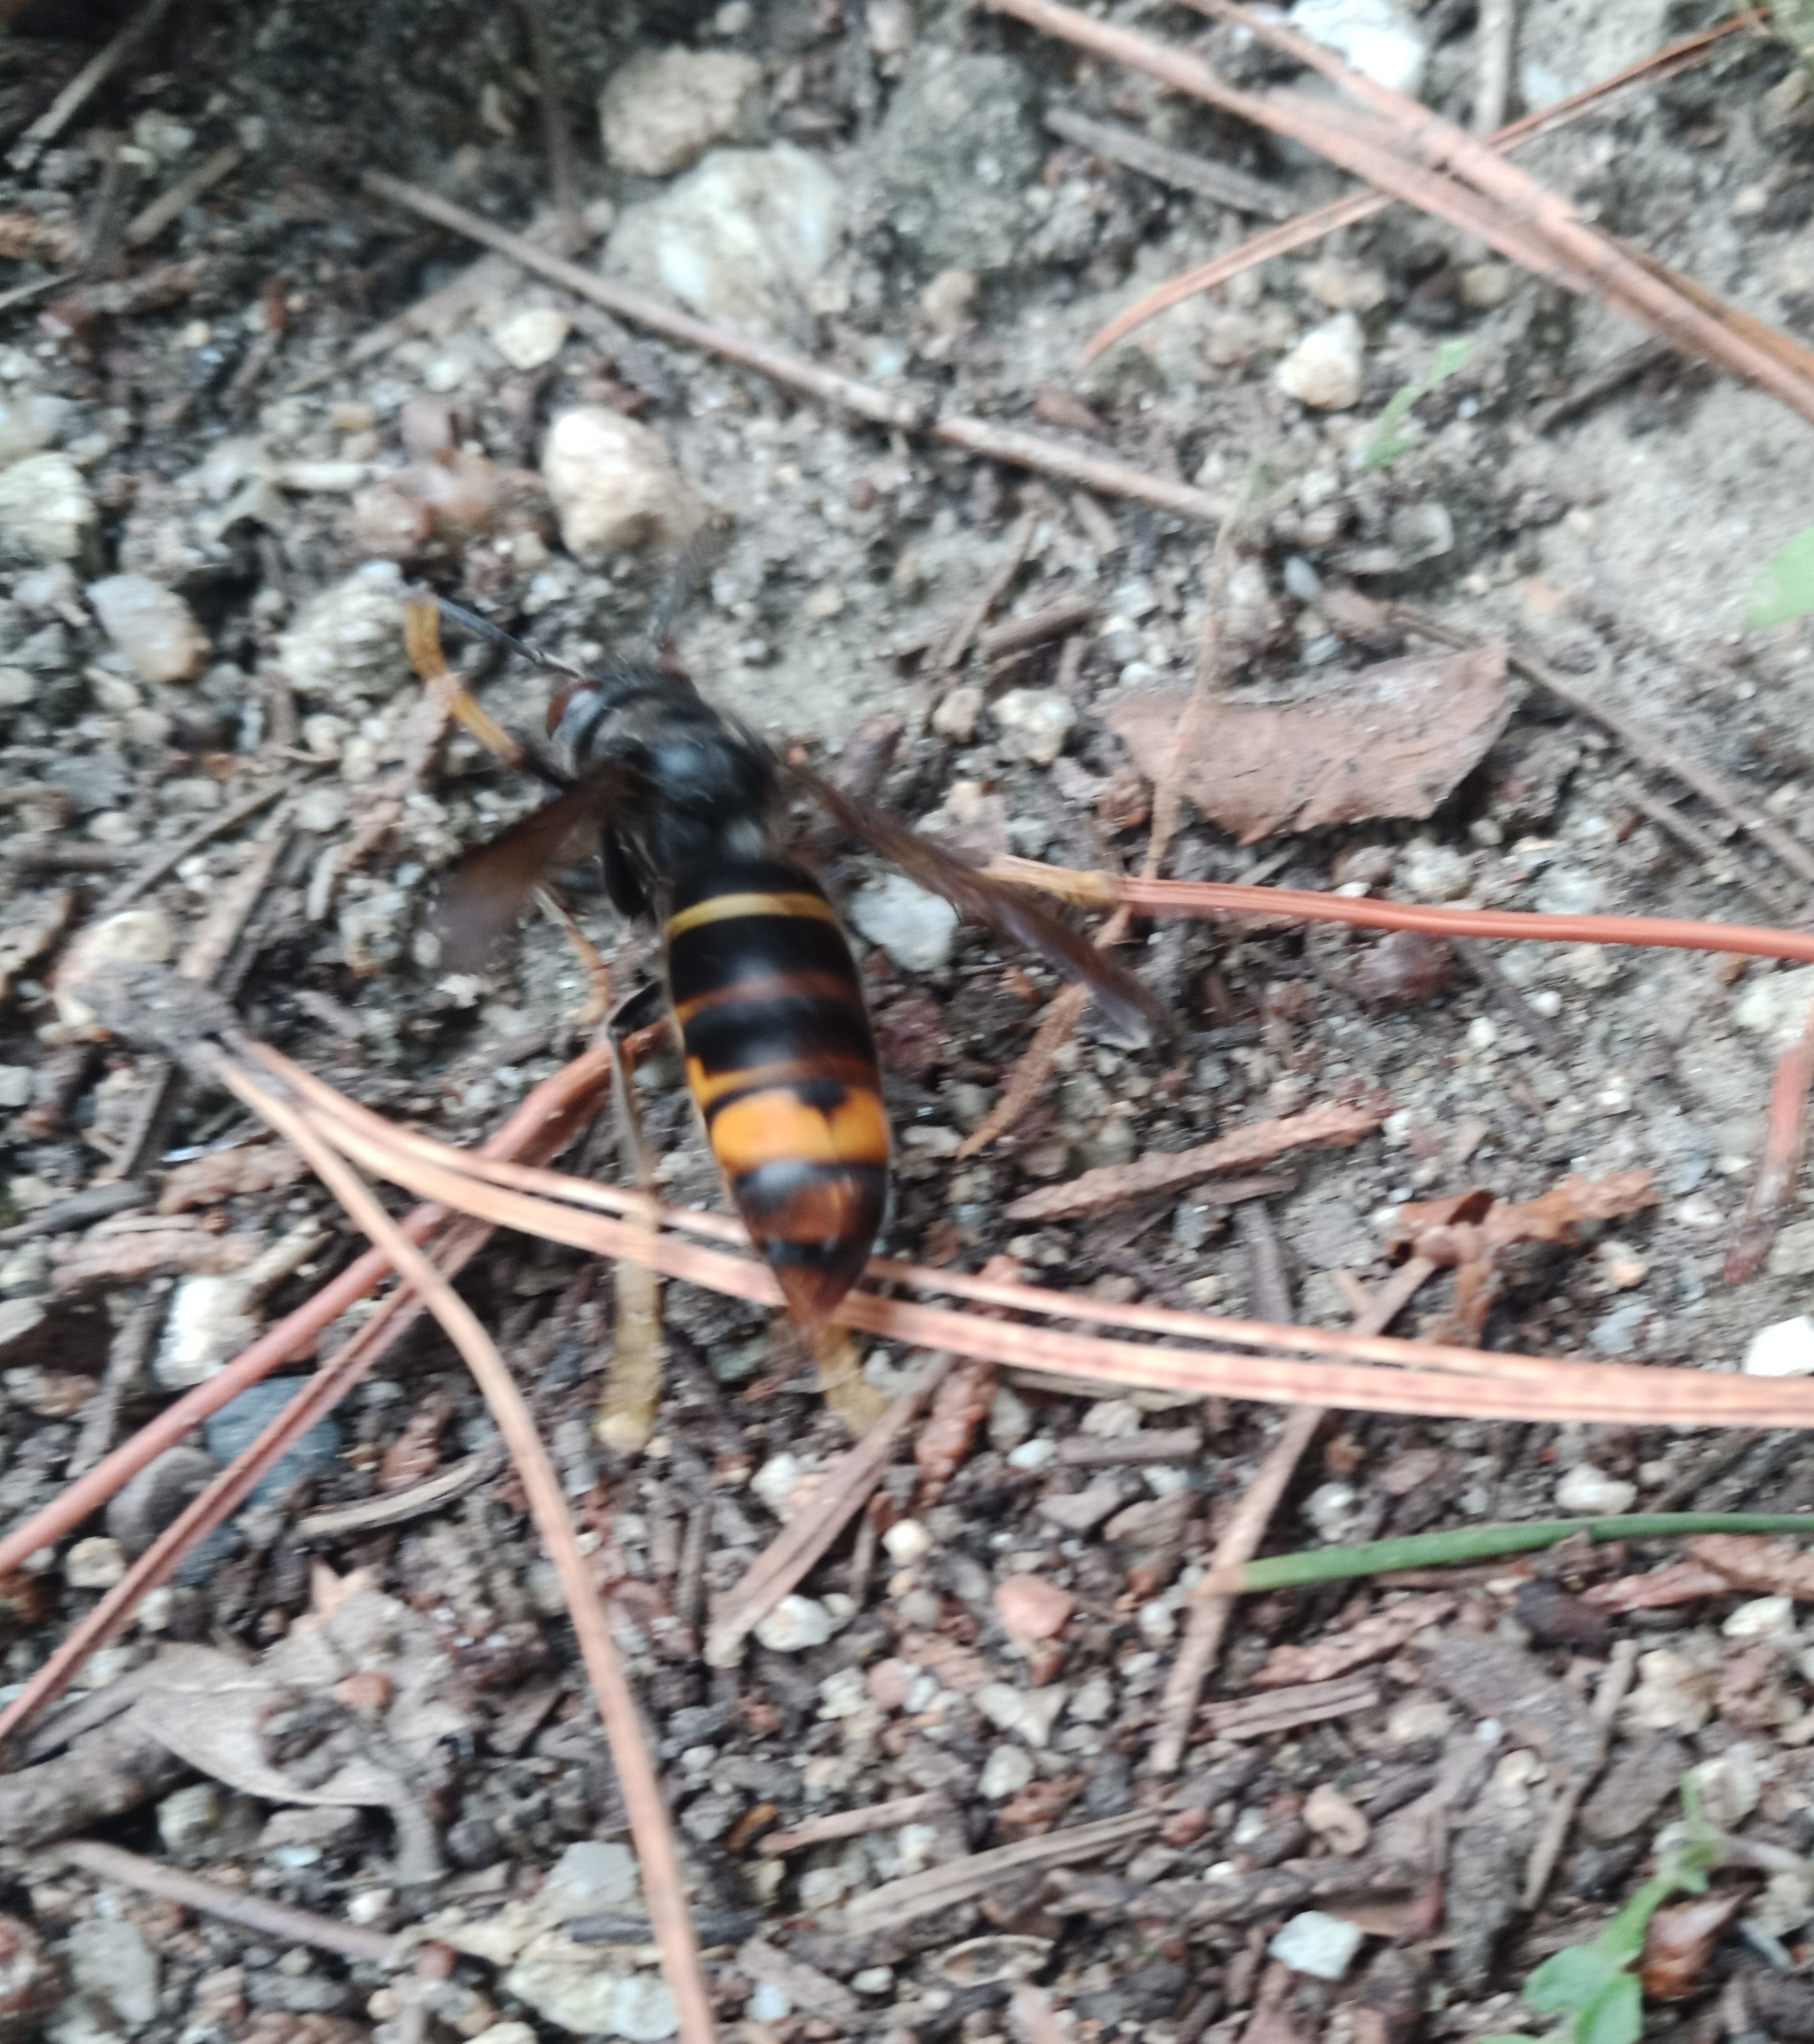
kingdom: Animalia
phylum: Arthropoda
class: Insecta
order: Hymenoptera
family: Vespidae
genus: Vespa
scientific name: Vespa velutina
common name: Asian hornet
